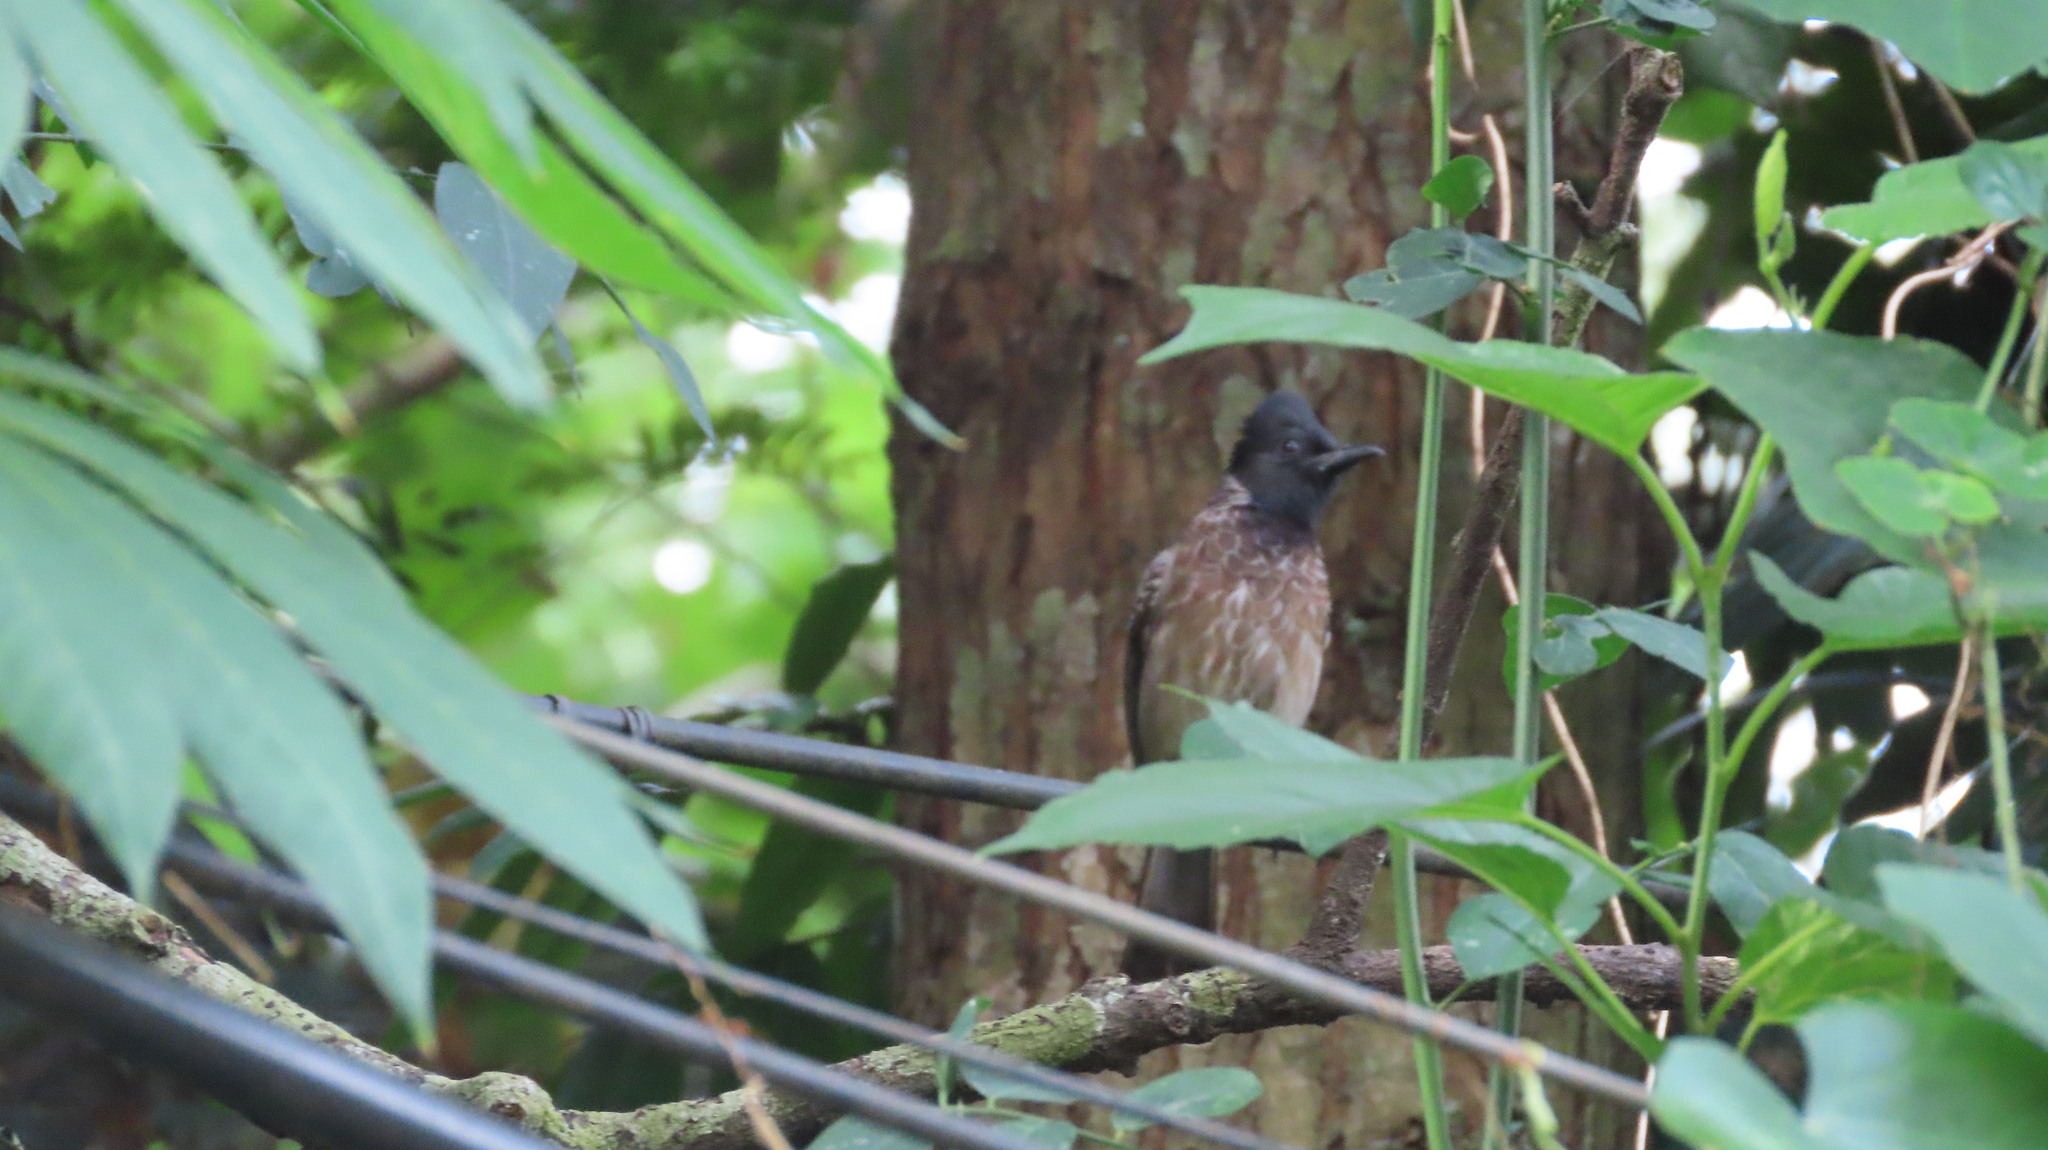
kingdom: Animalia
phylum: Chordata
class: Aves
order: Passeriformes
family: Pycnonotidae
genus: Pycnonotus
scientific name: Pycnonotus cafer
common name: Red-vented bulbul
